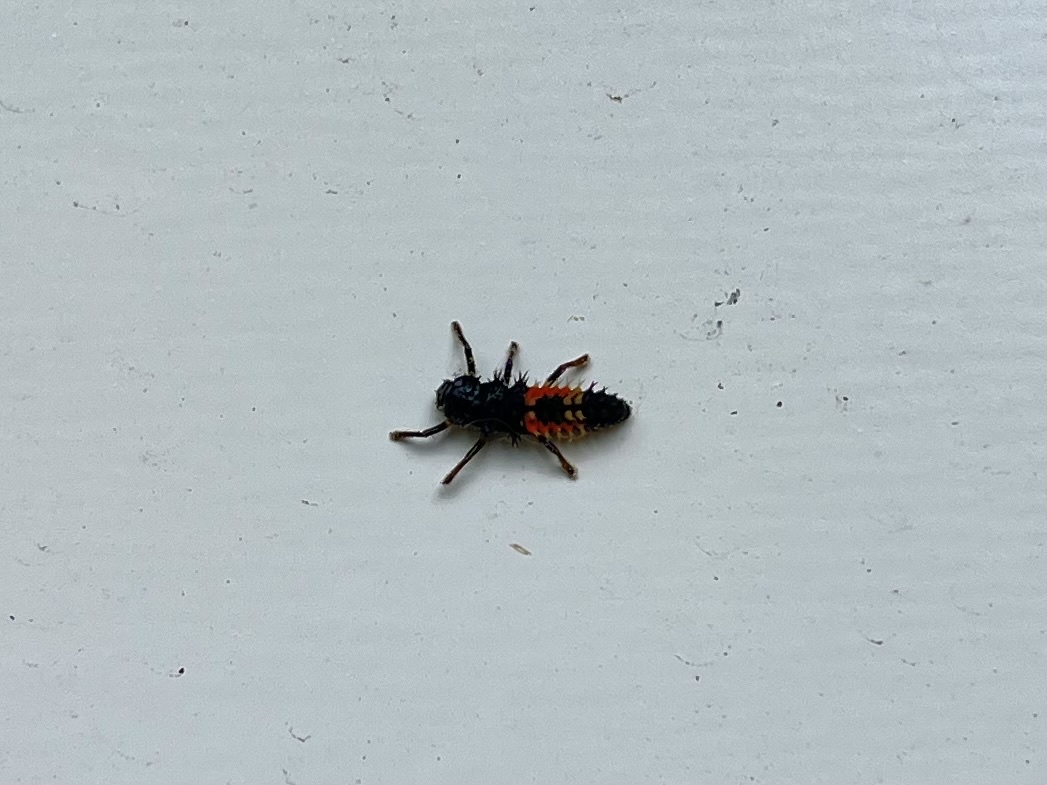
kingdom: Animalia
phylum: Arthropoda
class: Insecta
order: Coleoptera
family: Coccinellidae
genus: Harmonia
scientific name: Harmonia axyridis
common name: Harlequin ladybird
